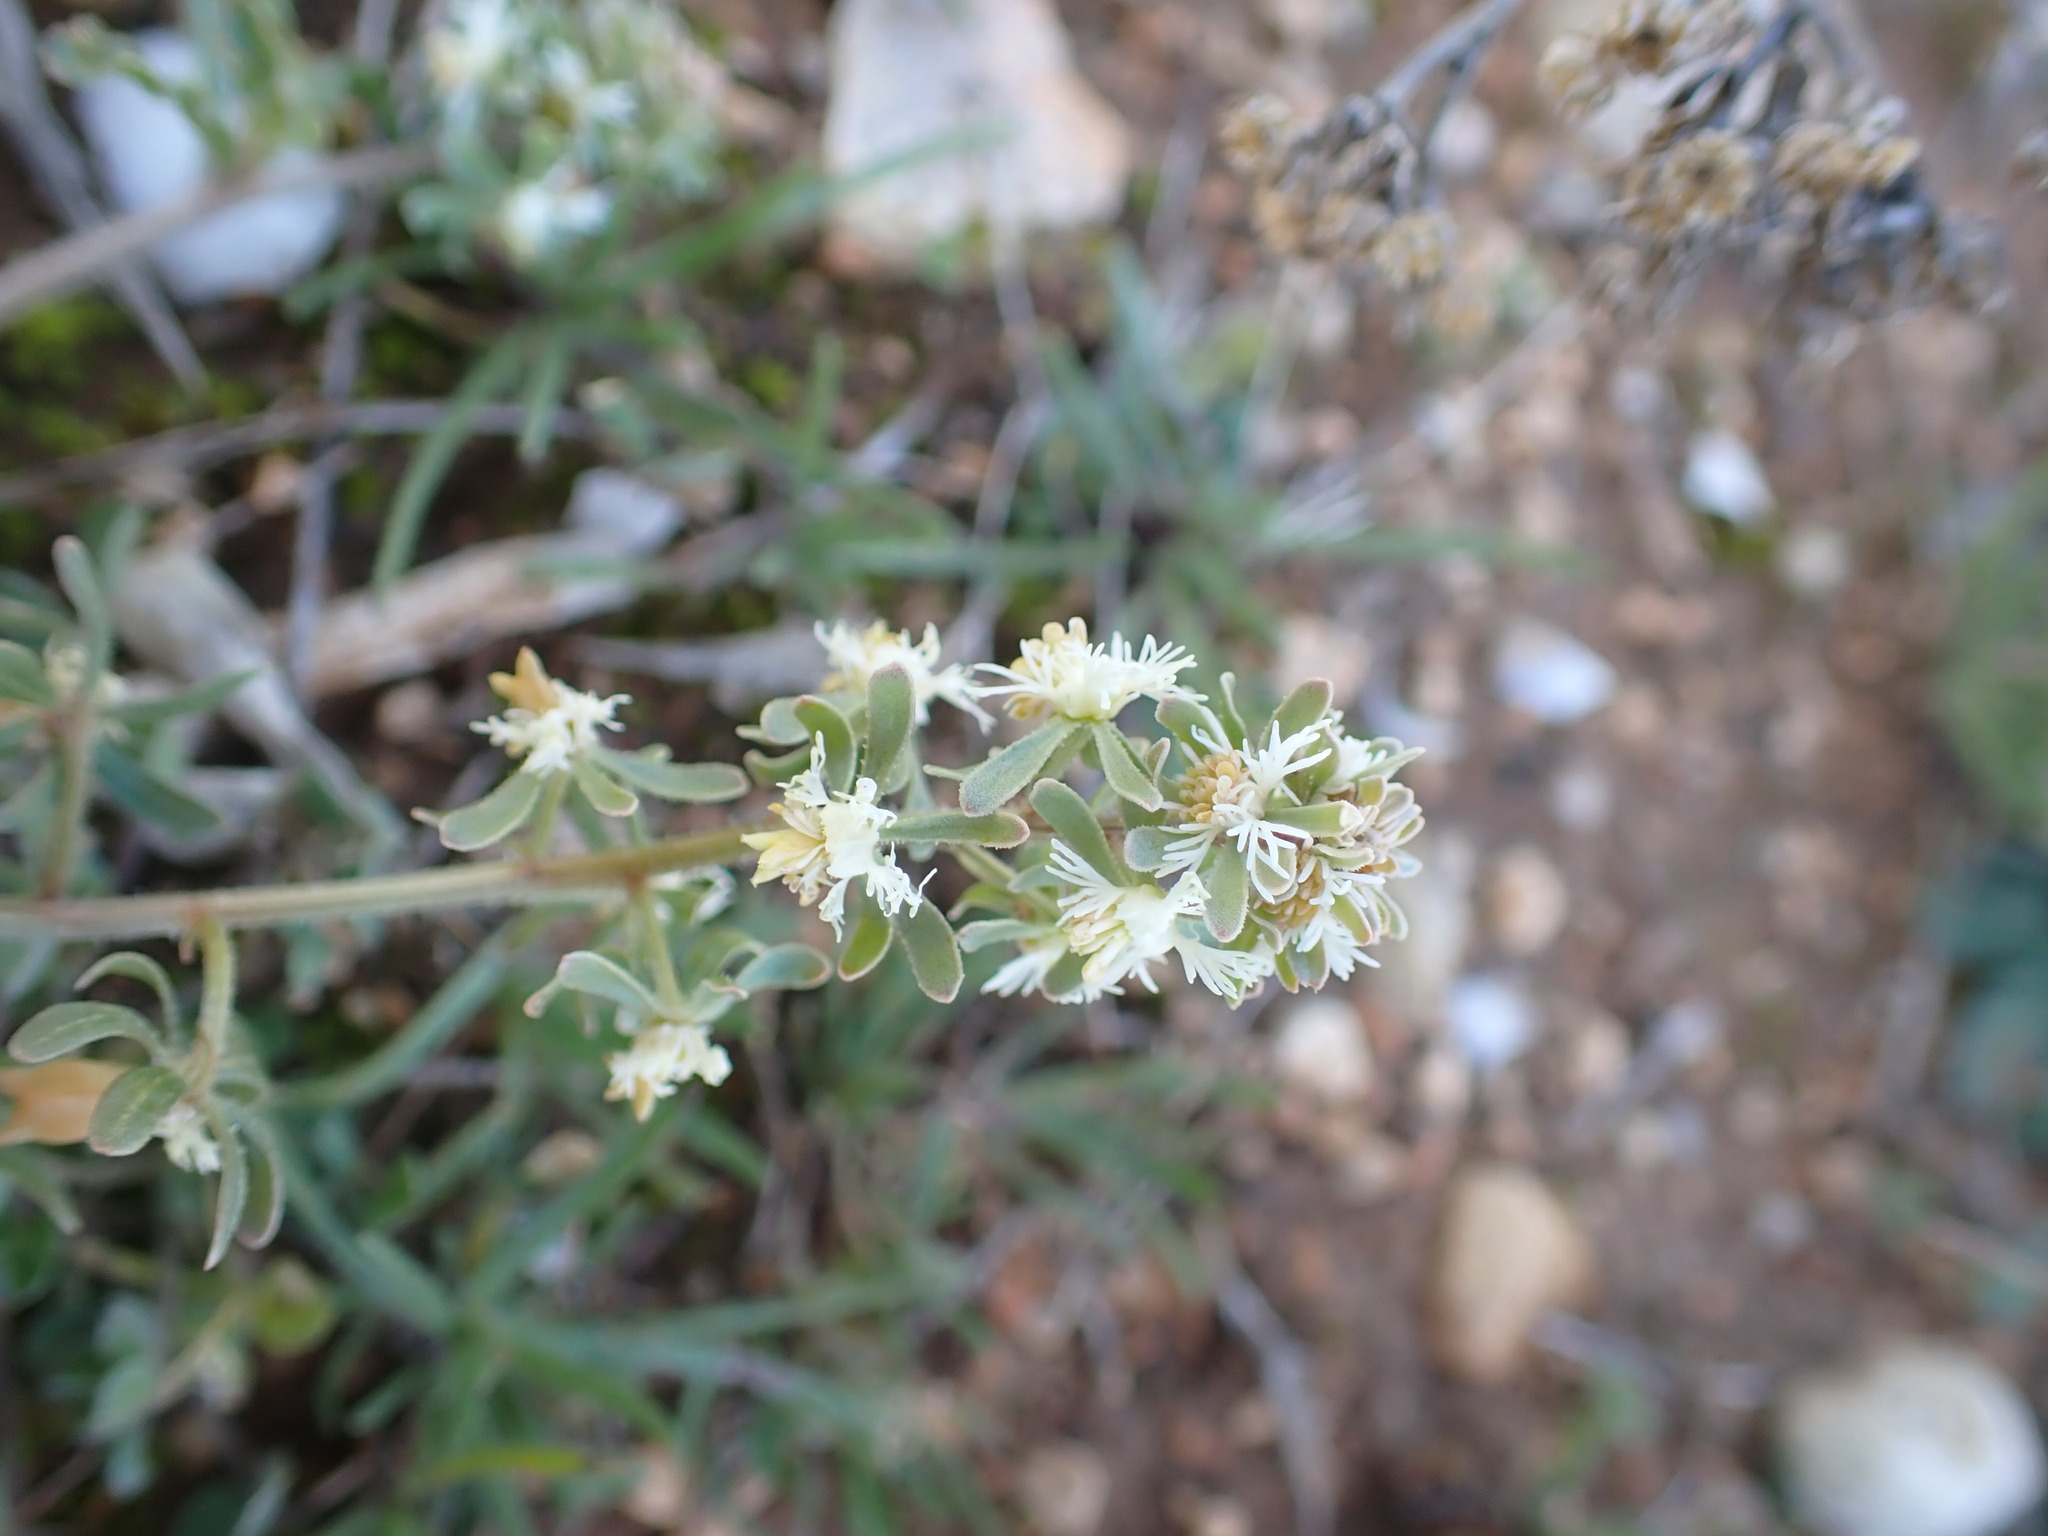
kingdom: Plantae
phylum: Tracheophyta
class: Magnoliopsida
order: Brassicales
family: Resedaceae
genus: Reseda
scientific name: Reseda phyteuma
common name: Corn mignonette
